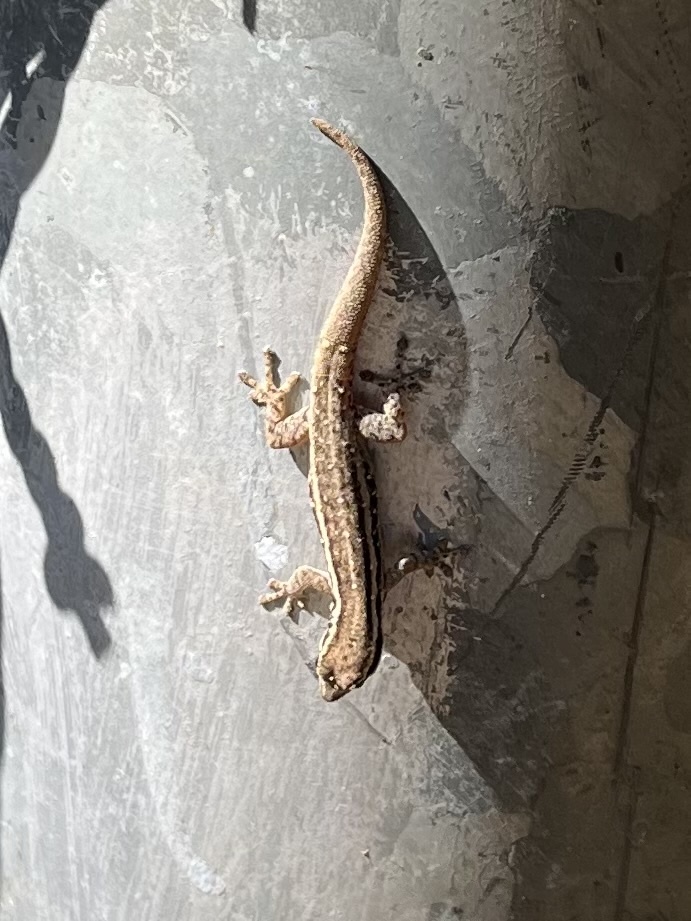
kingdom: Animalia
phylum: Chordata
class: Squamata
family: Gekkonidae
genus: Lygodactylus
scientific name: Lygodactylus capensis
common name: Cape dwarf gecko
